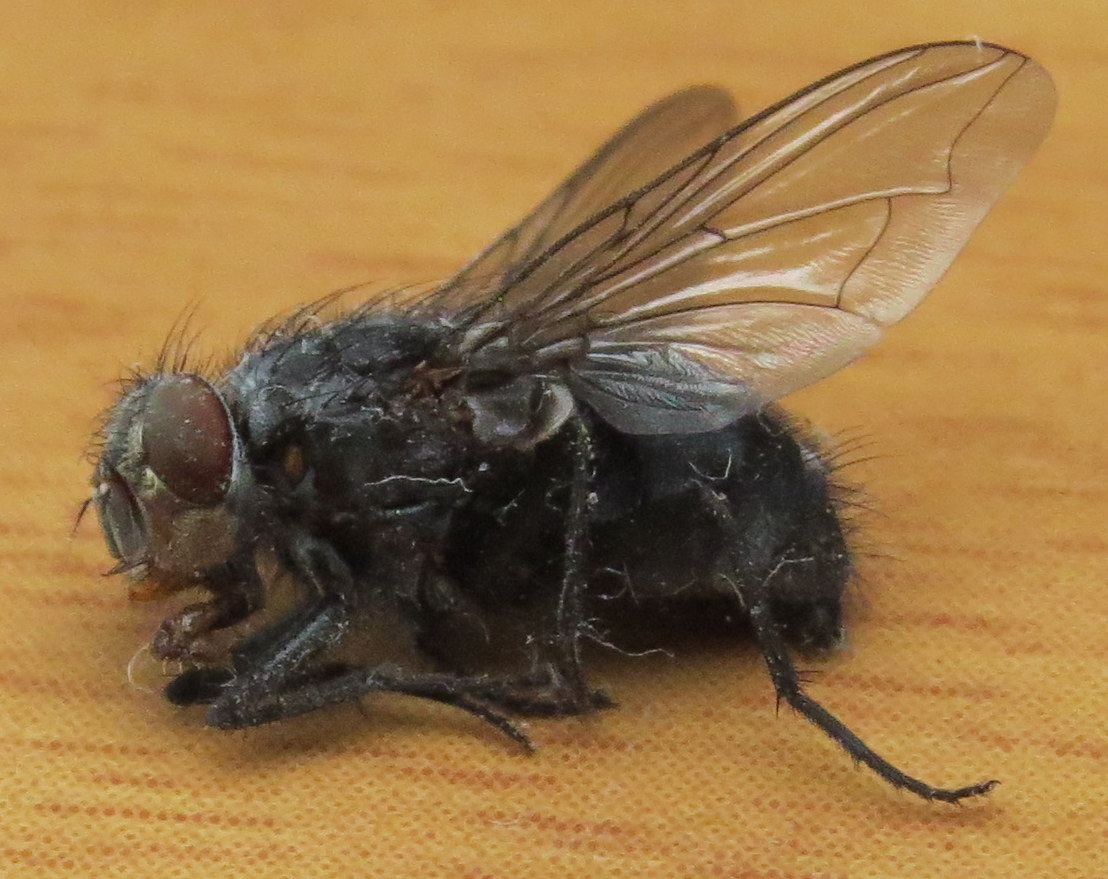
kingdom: Animalia
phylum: Arthropoda
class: Insecta
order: Diptera
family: Calliphoridae
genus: Calliphora
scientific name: Calliphora vicina
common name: Common blow flie
